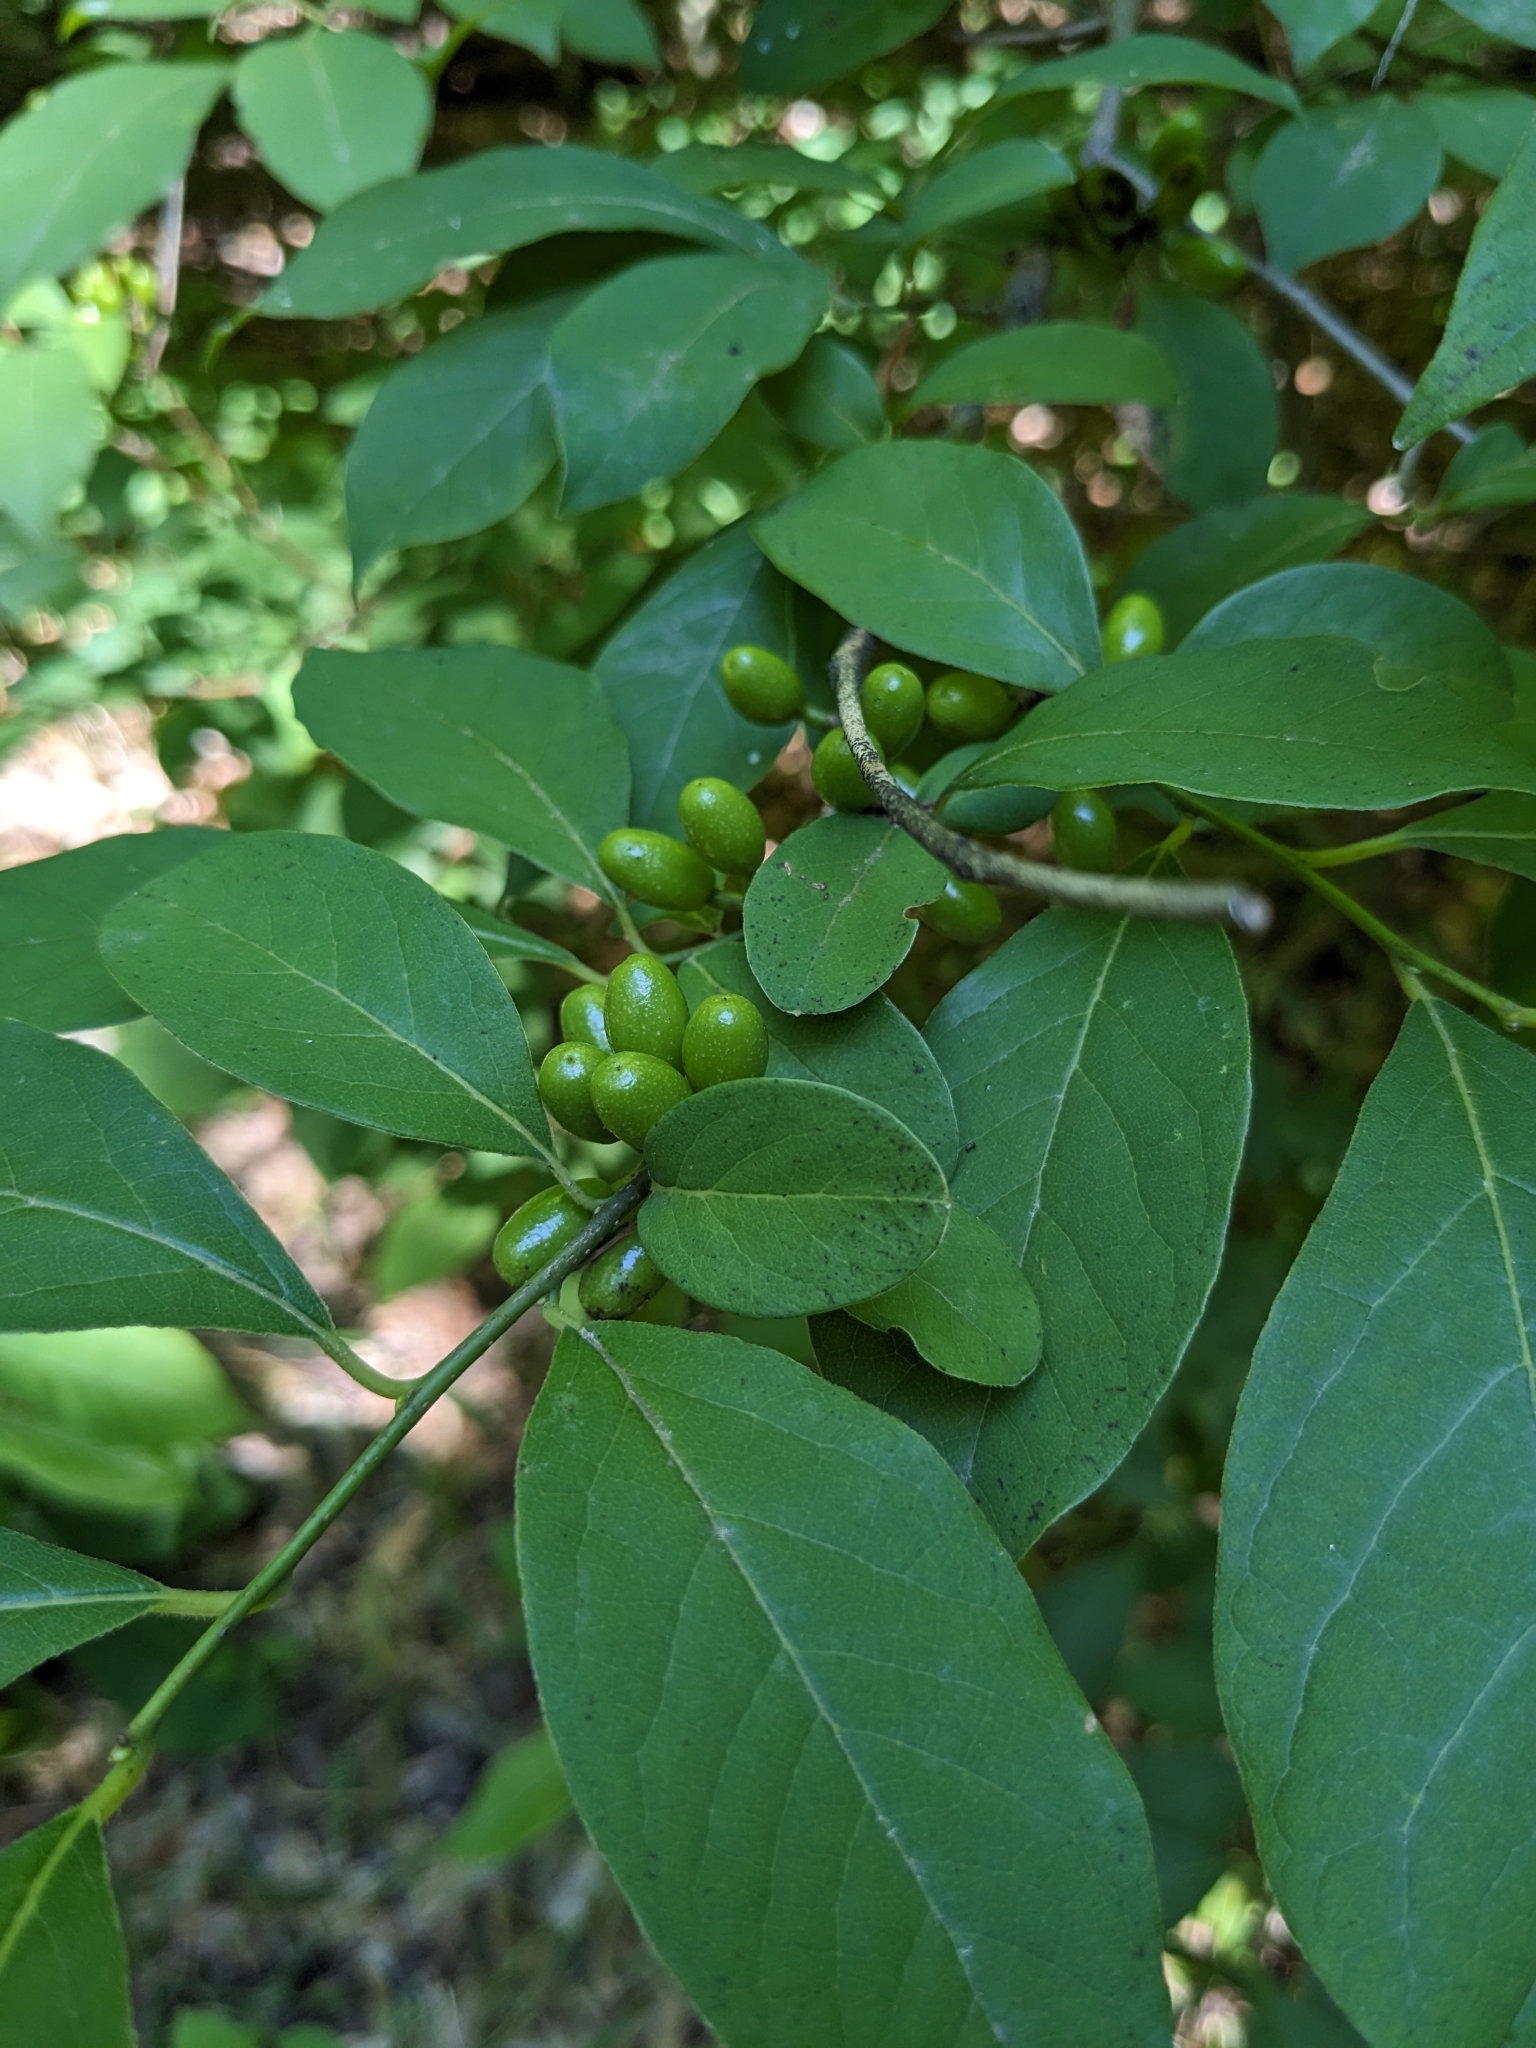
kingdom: Plantae
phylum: Tracheophyta
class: Magnoliopsida
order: Laurales
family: Lauraceae
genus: Lindera
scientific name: Lindera benzoin
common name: Spicebush
